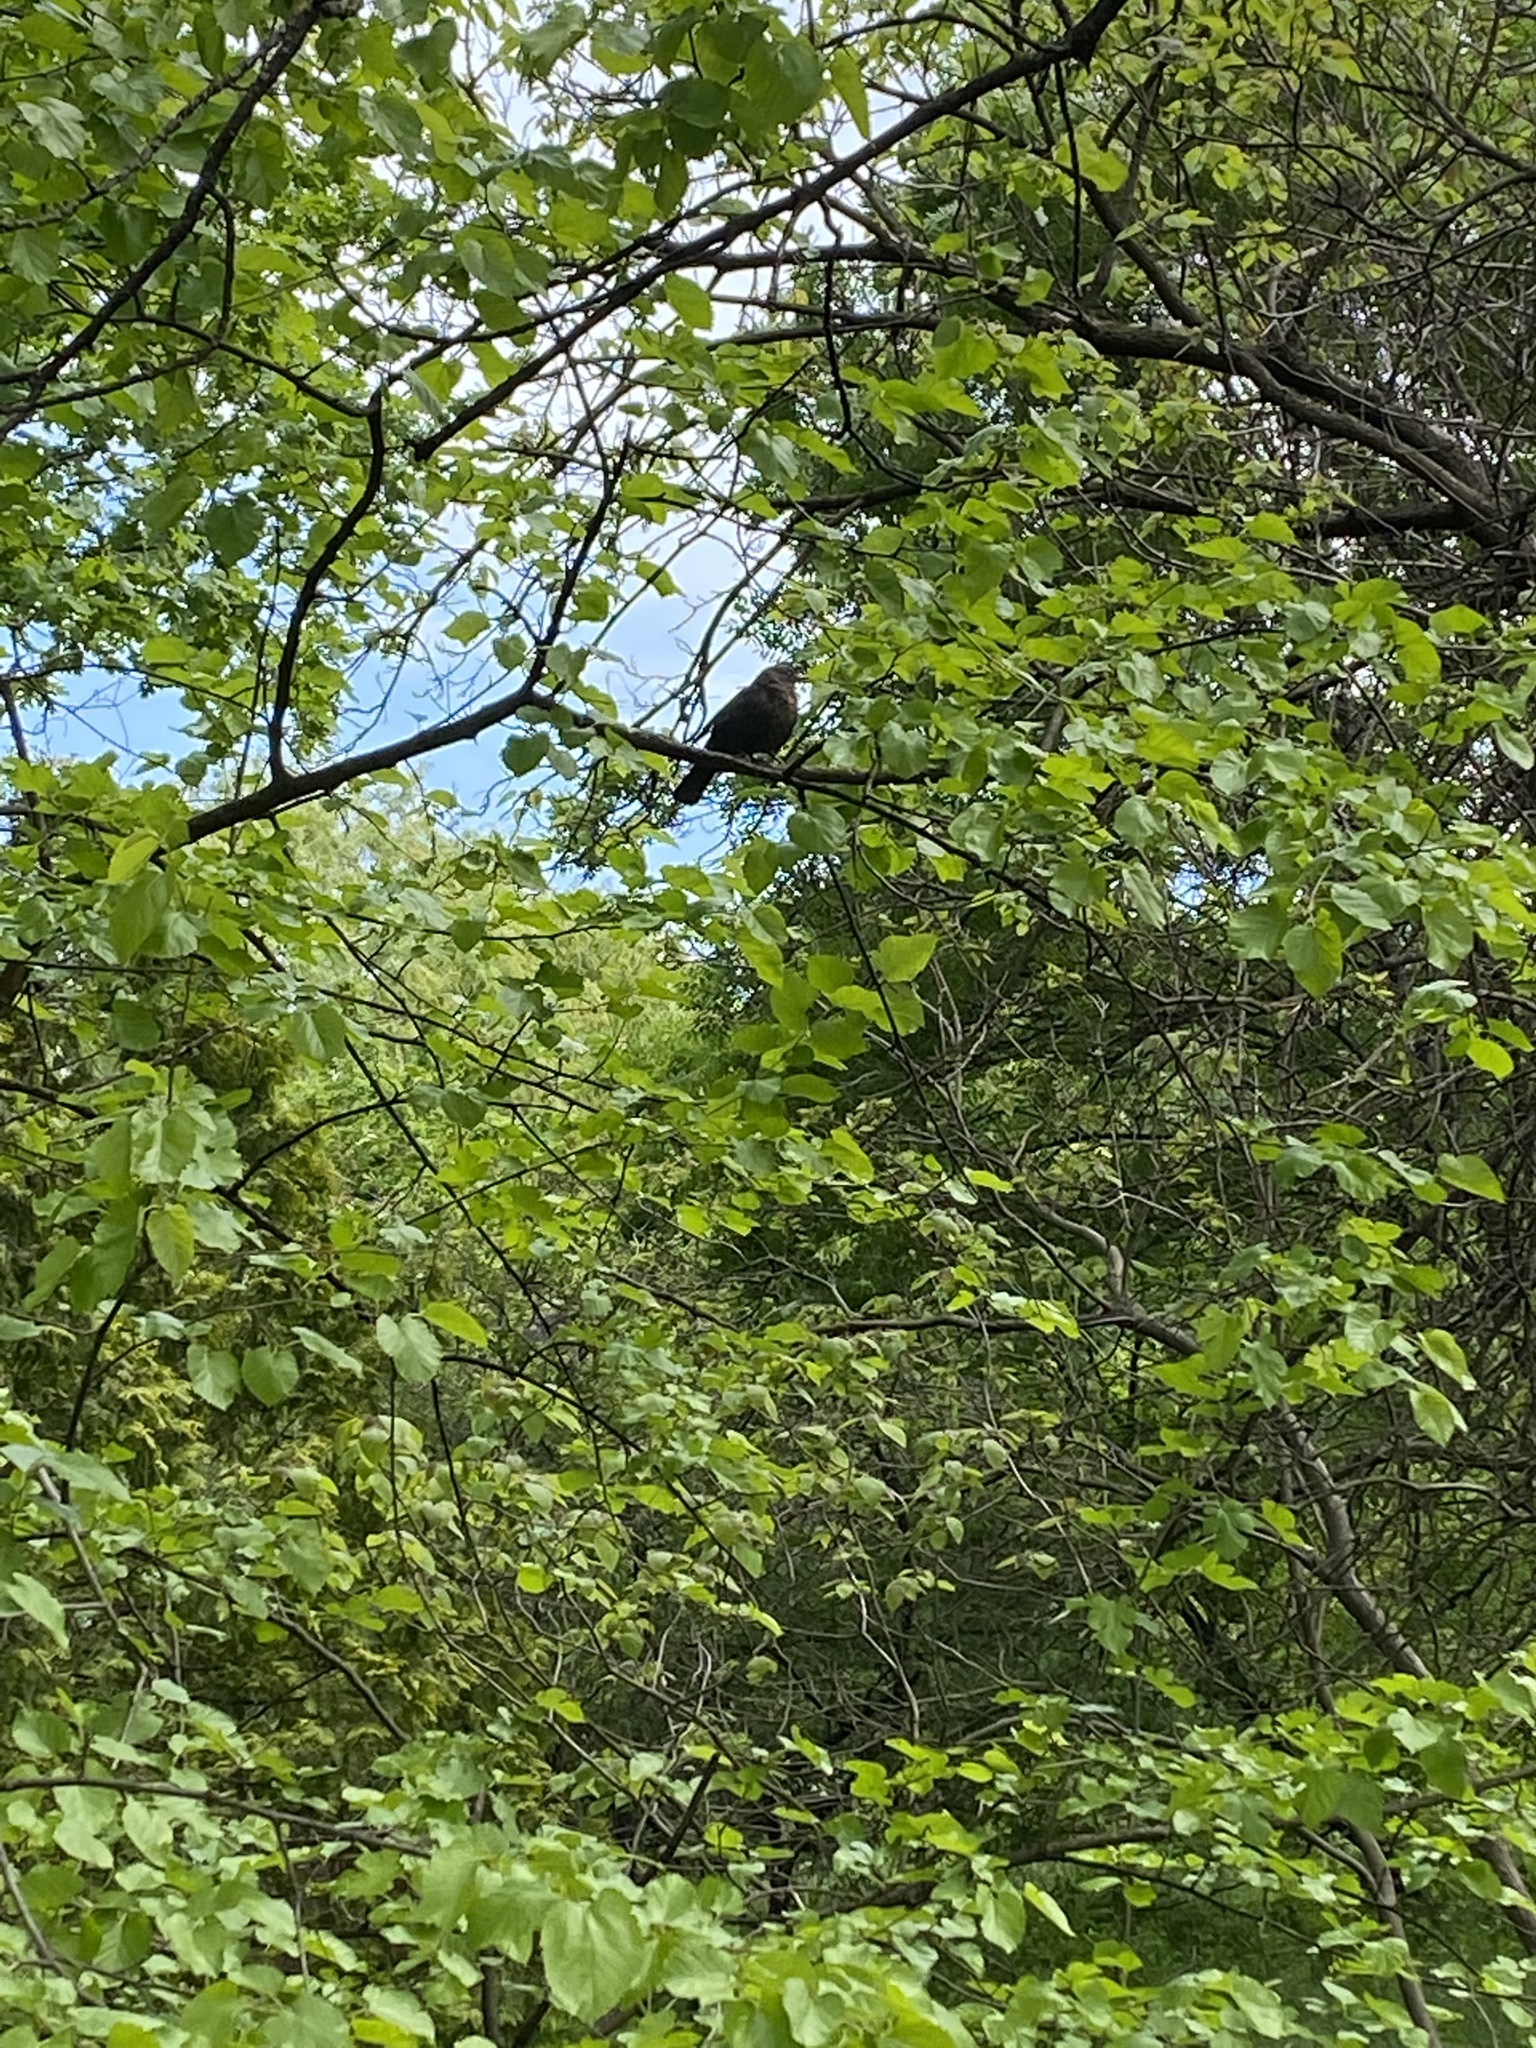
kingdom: Animalia
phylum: Chordata
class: Aves
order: Passeriformes
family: Turdidae
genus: Turdus
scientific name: Turdus merula
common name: Common blackbird
